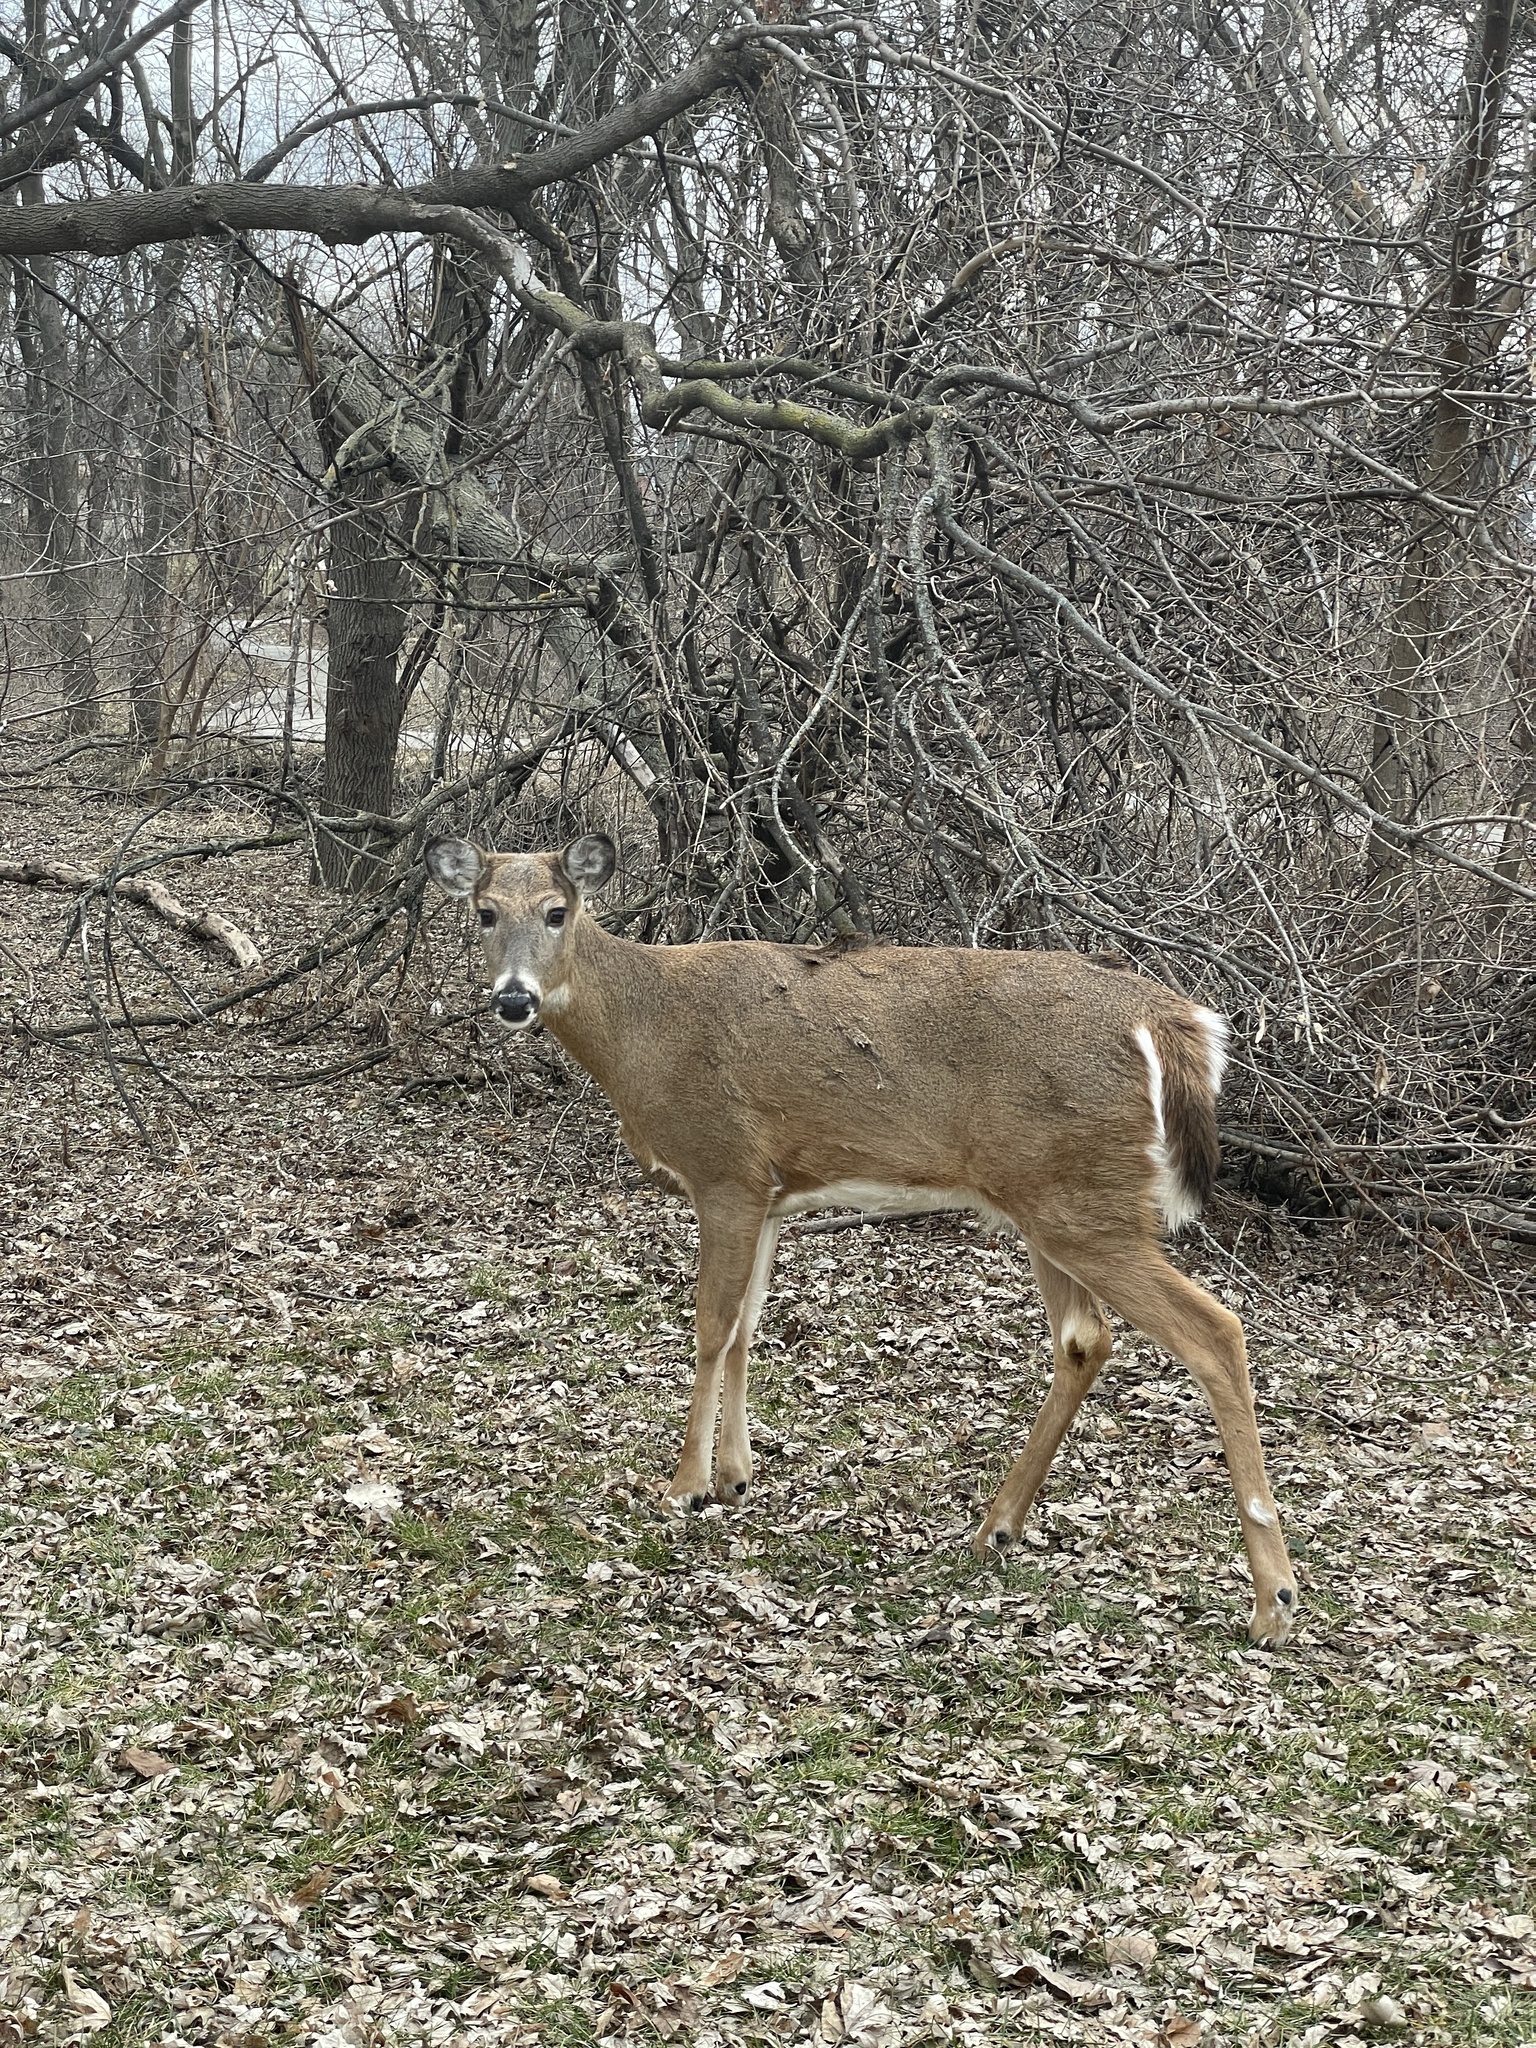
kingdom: Animalia
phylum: Chordata
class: Mammalia
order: Artiodactyla
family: Cervidae
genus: Odocoileus
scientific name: Odocoileus virginianus
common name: White-tailed deer
